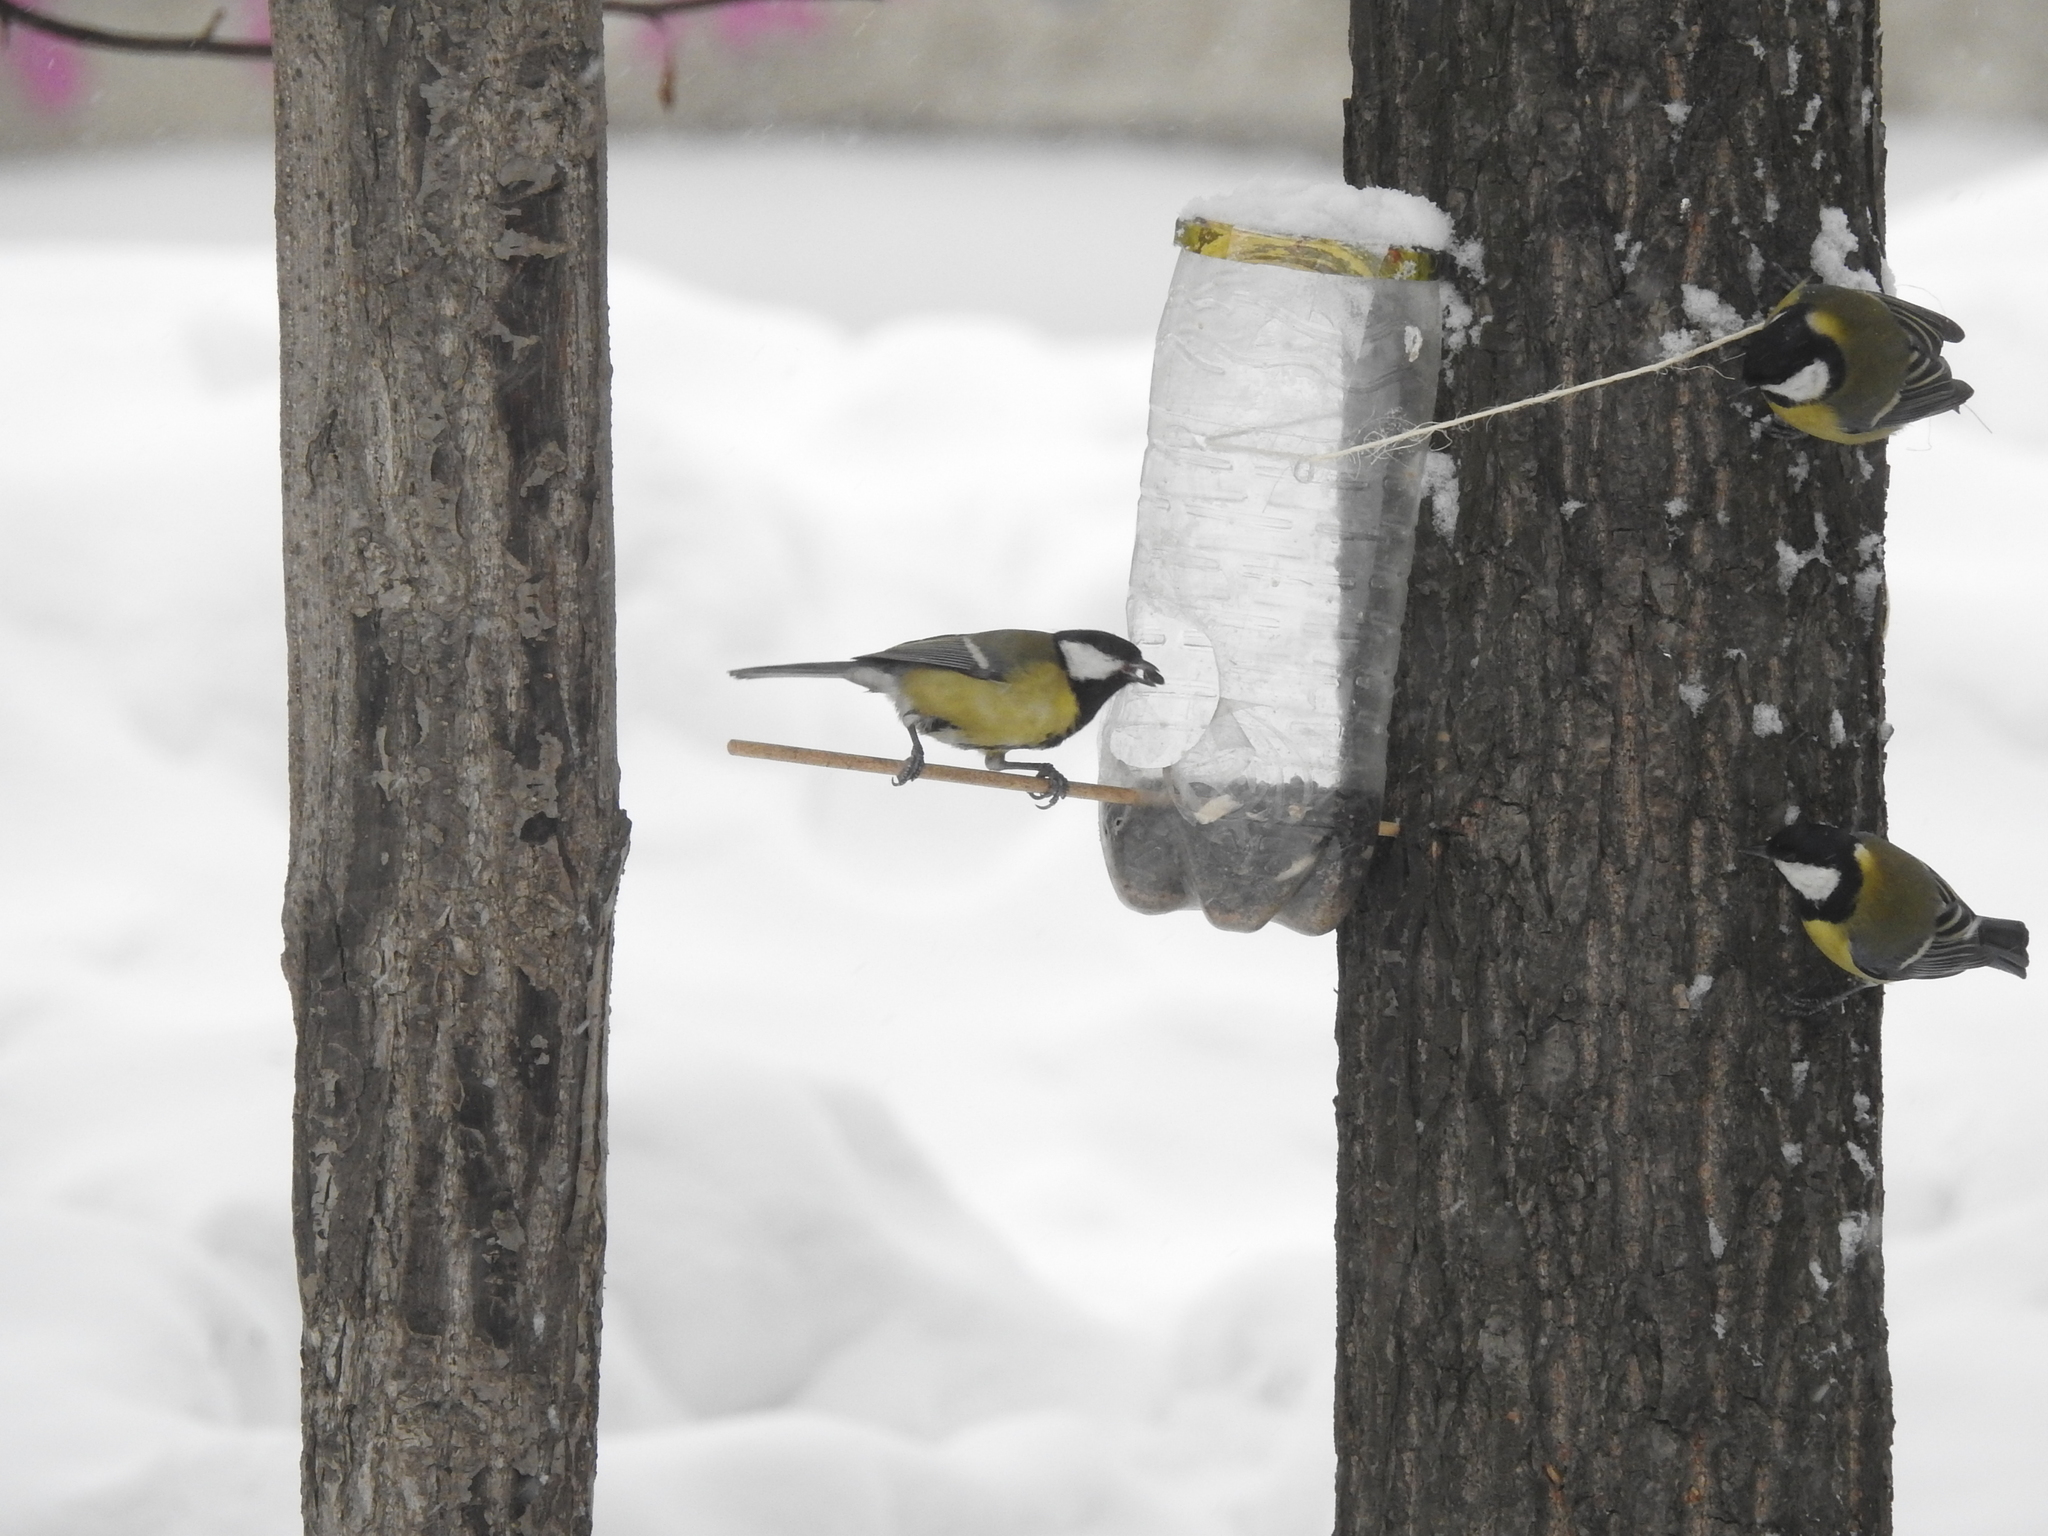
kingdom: Animalia
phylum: Chordata
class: Aves
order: Passeriformes
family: Paridae
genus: Parus
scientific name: Parus major
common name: Great tit
